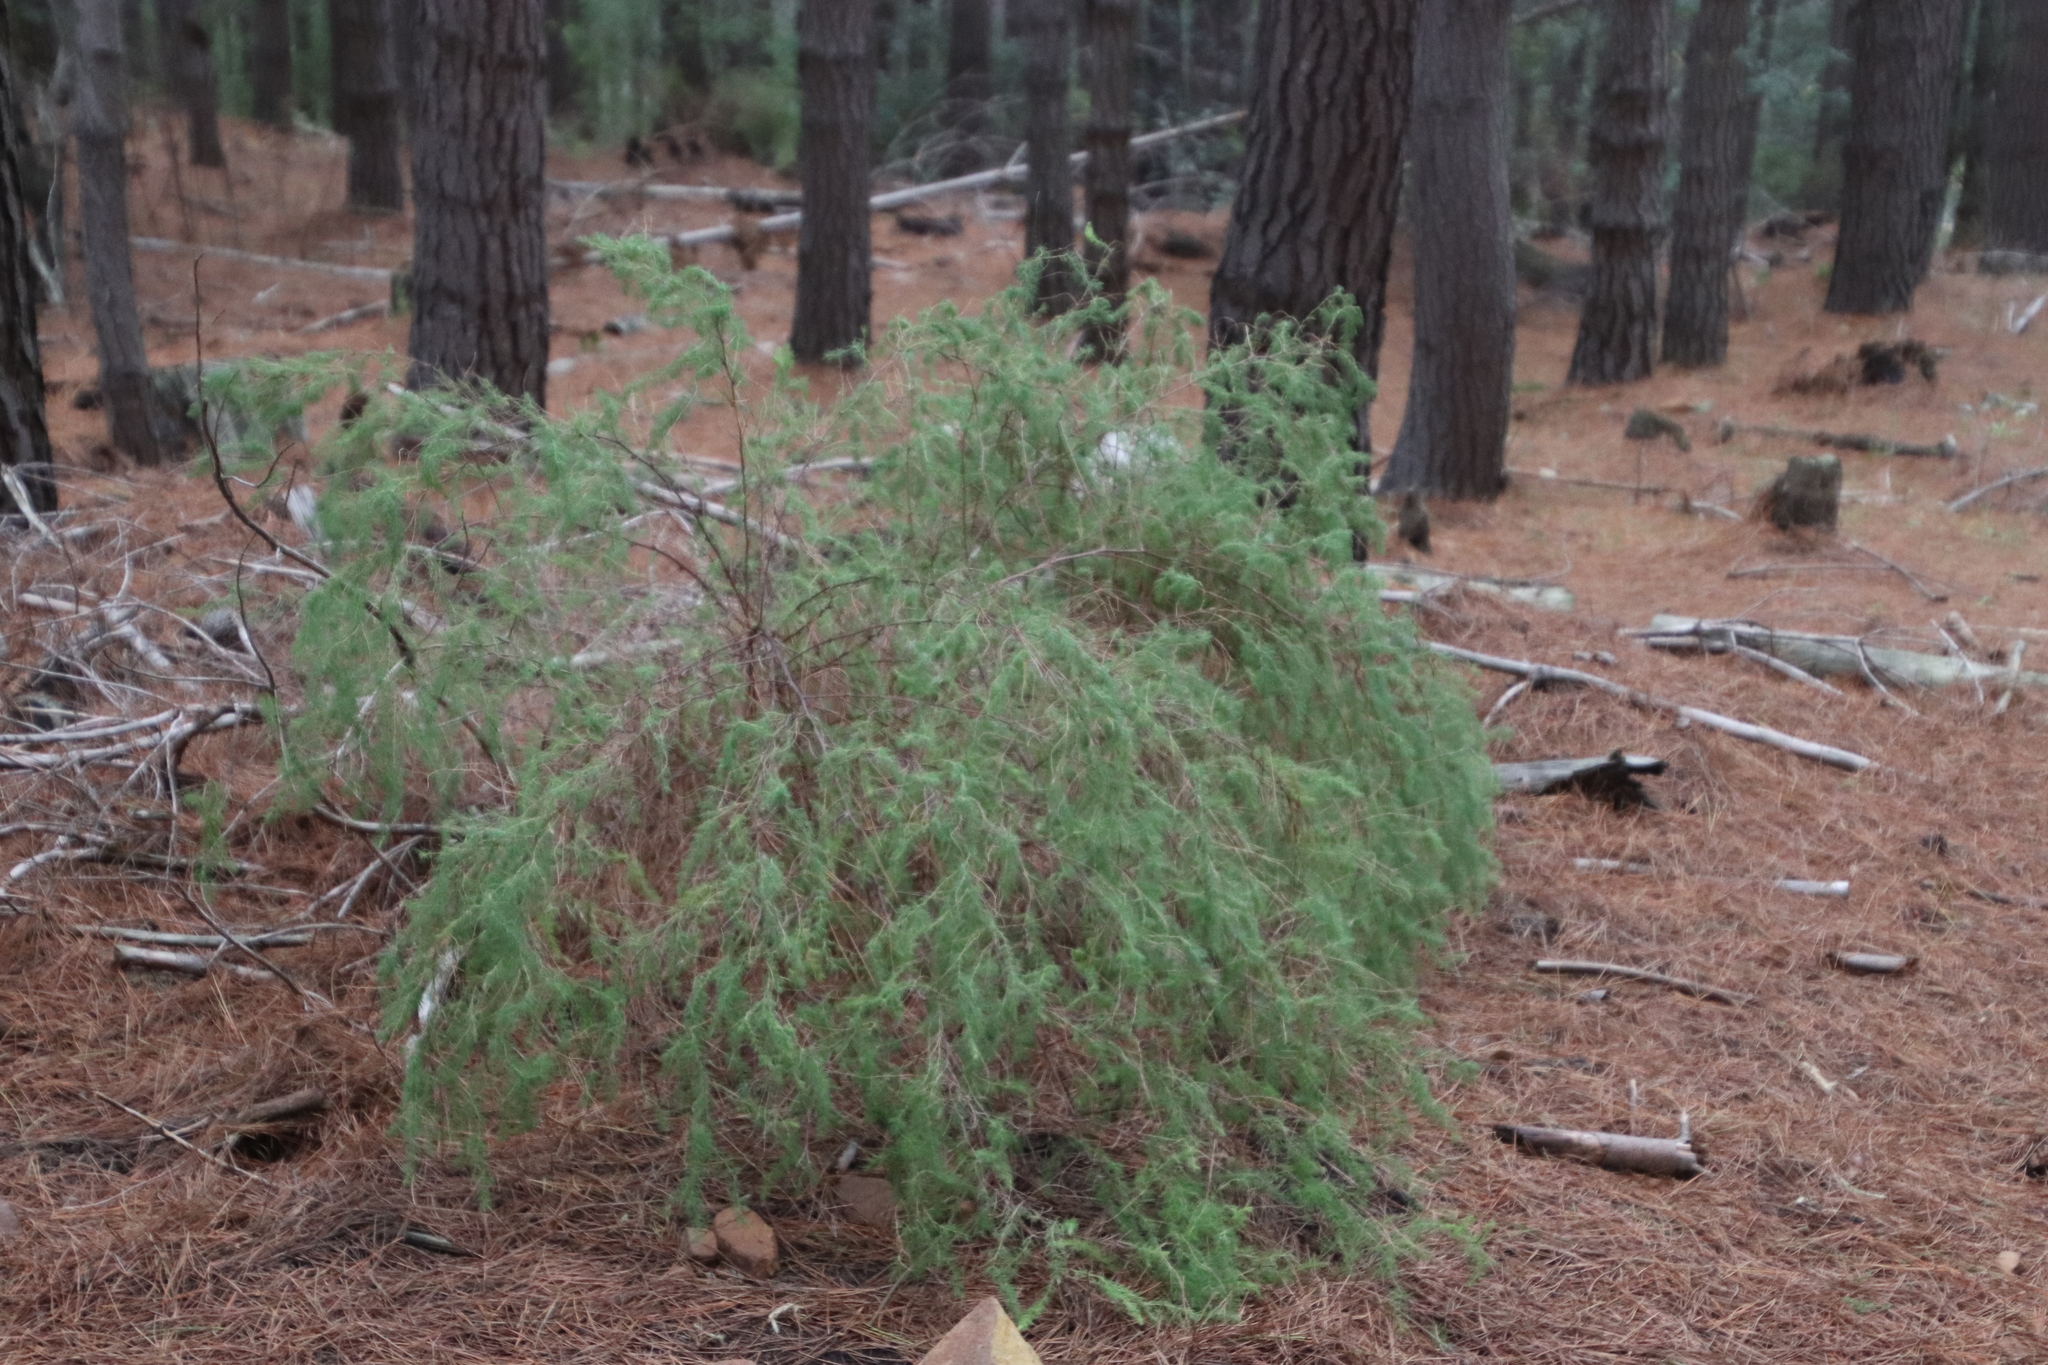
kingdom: Plantae
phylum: Tracheophyta
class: Liliopsida
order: Asparagales
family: Asparagaceae
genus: Asparagus
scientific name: Asparagus rubicundus
